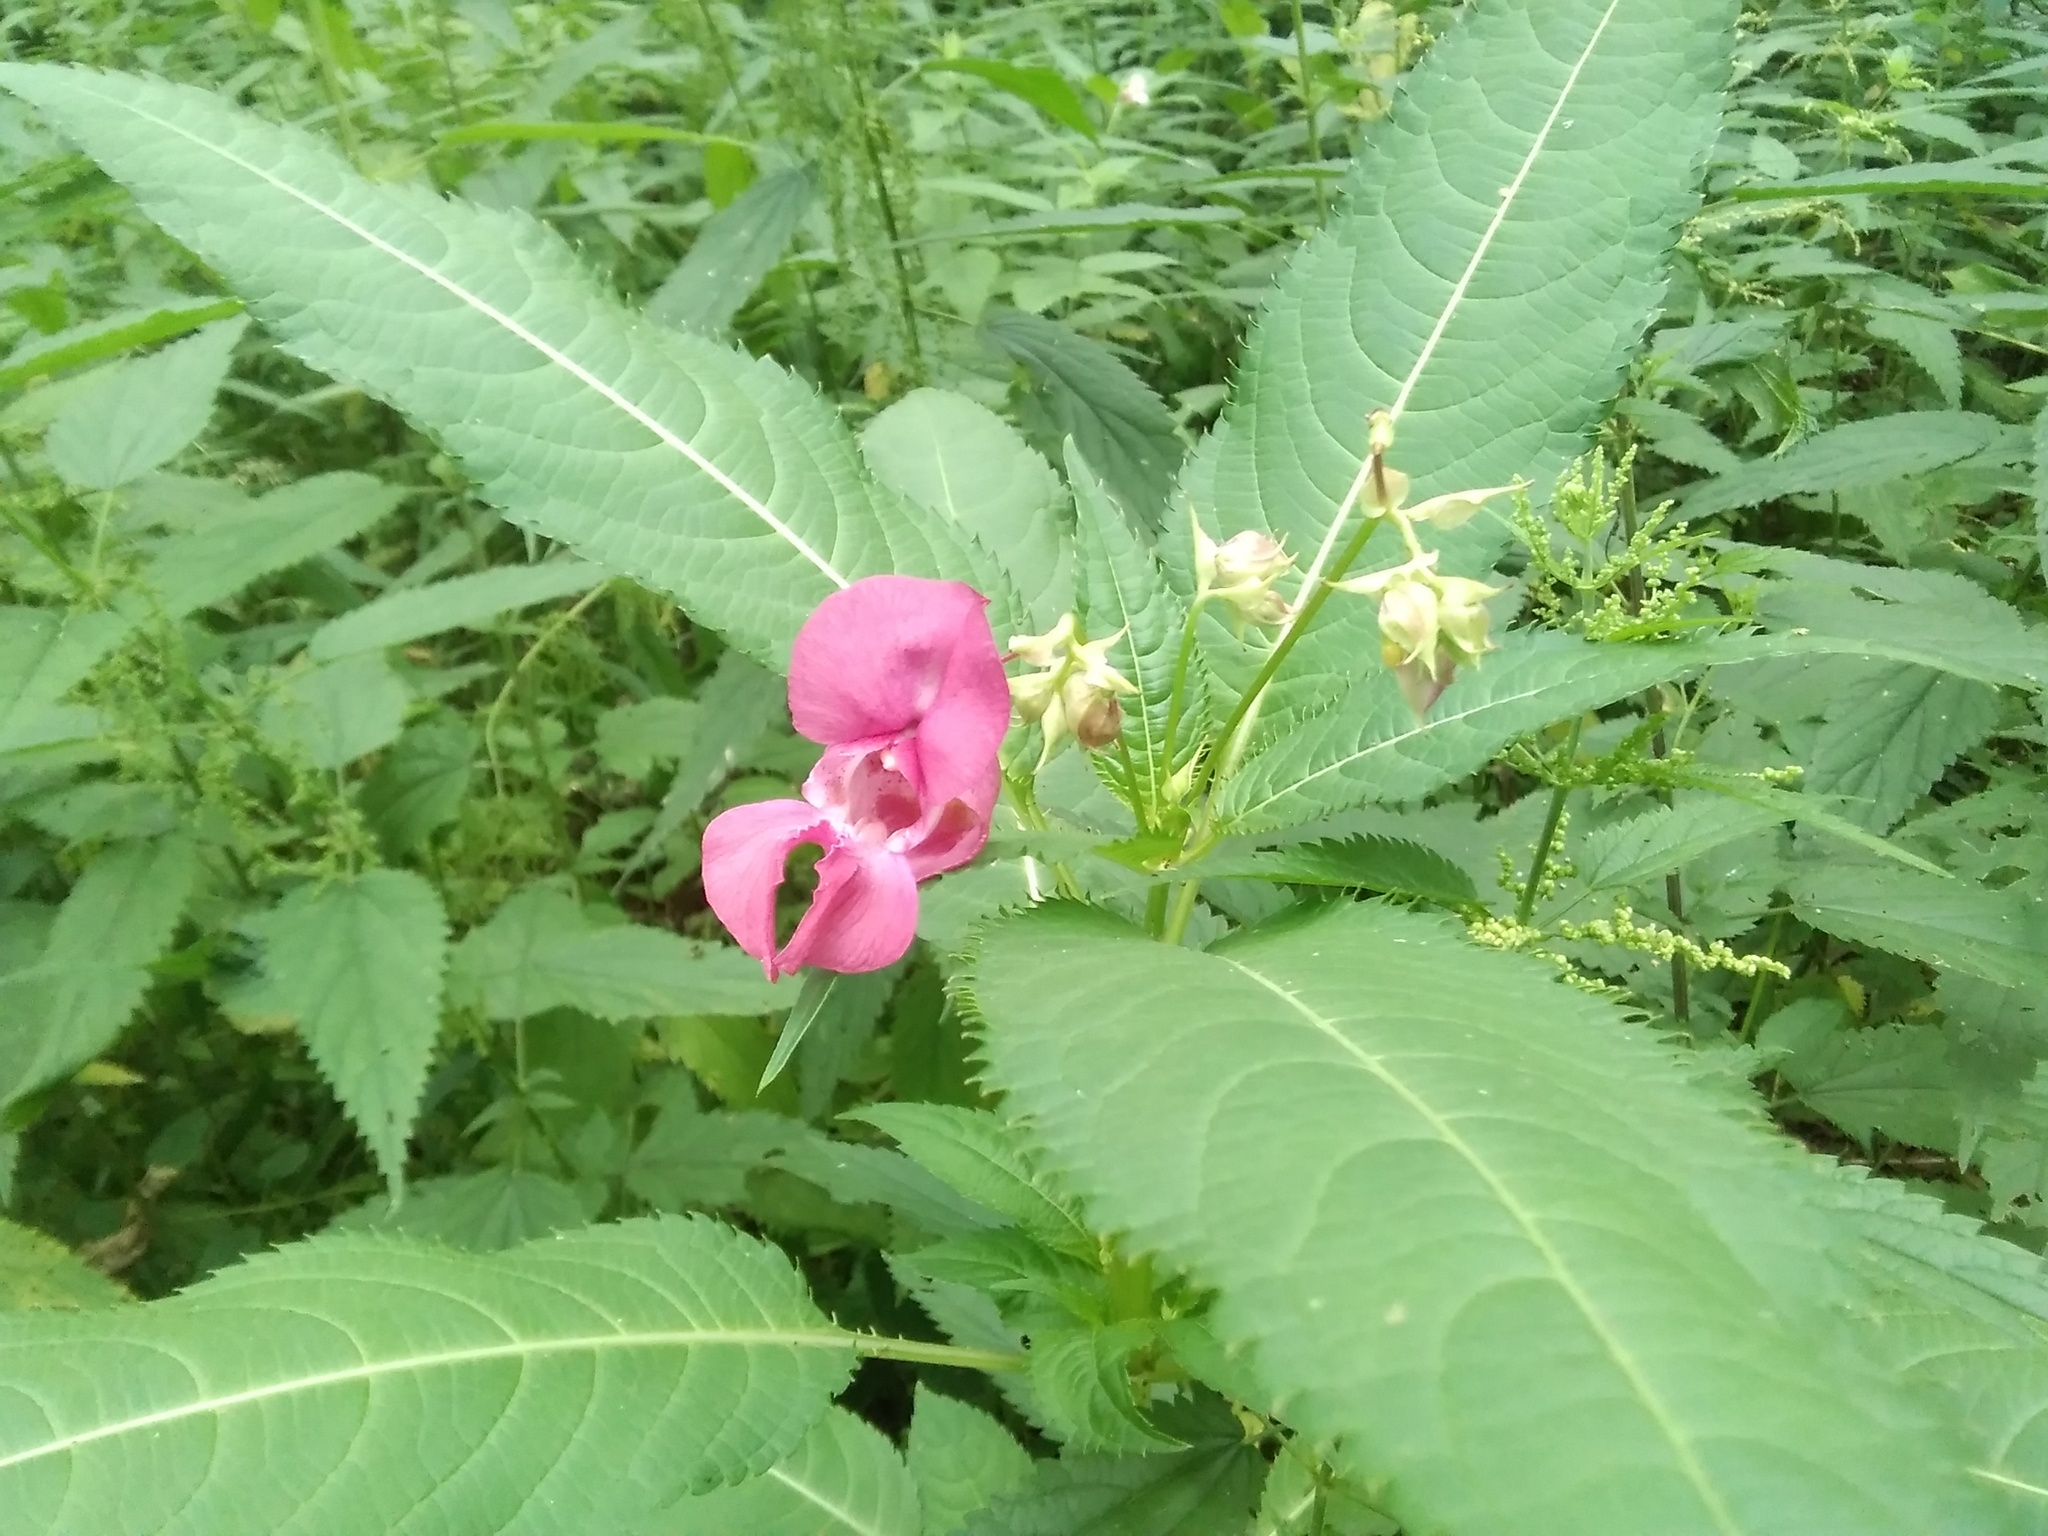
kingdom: Plantae
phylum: Tracheophyta
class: Magnoliopsida
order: Ericales
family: Balsaminaceae
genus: Impatiens
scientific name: Impatiens glandulifera
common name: Himalayan balsam
